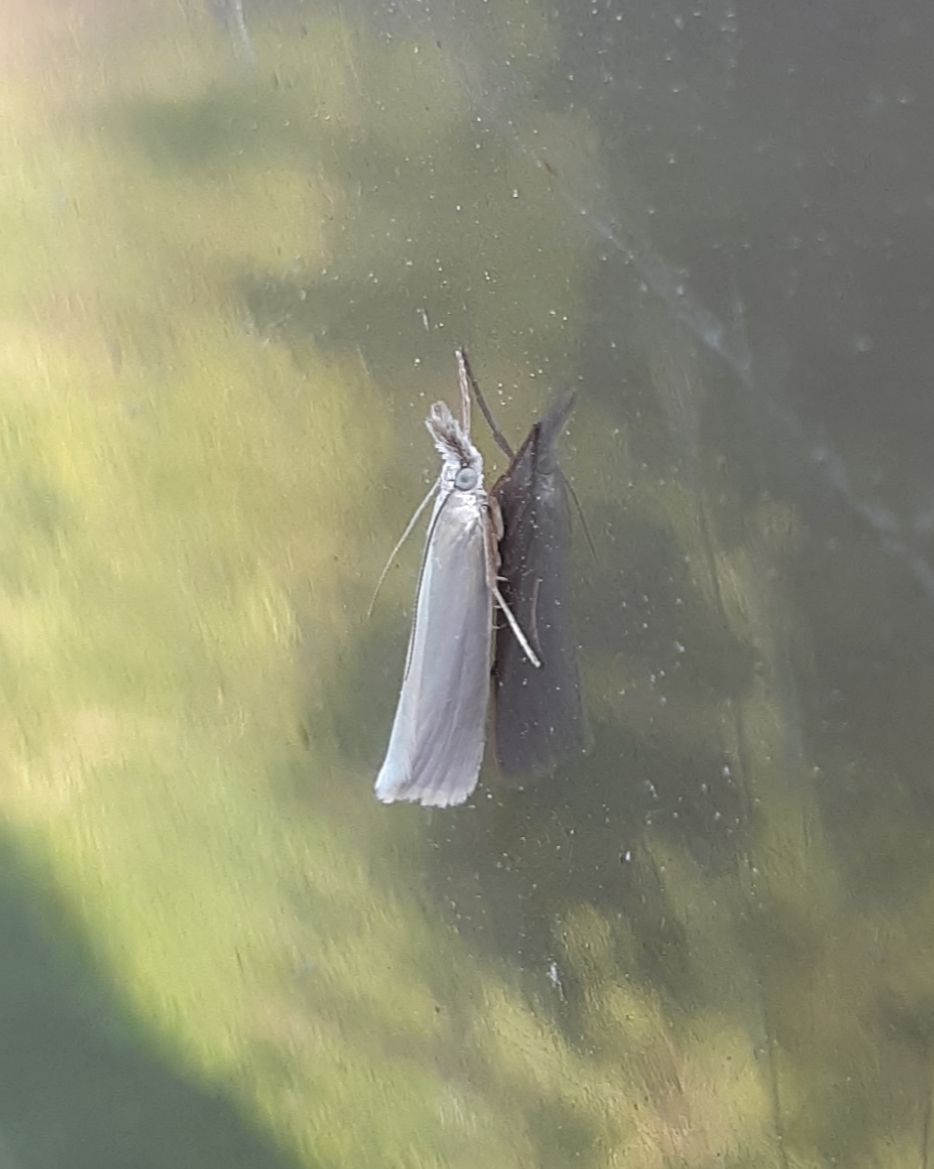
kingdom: Animalia
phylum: Arthropoda
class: Insecta
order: Lepidoptera
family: Crambidae
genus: Crambus
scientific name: Crambus perlellus
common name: Yellow satin veneer
